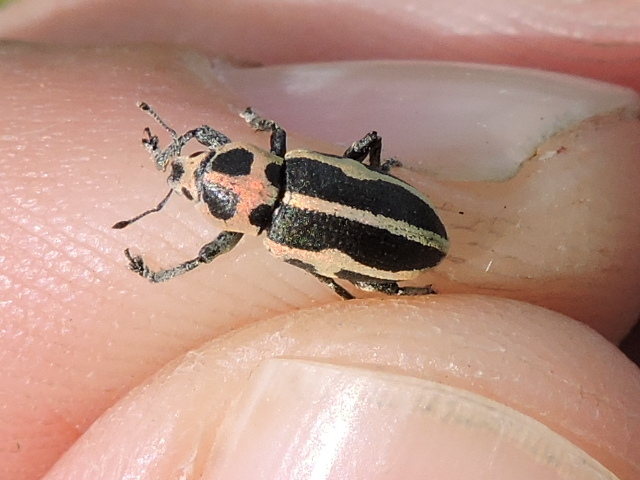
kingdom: Animalia
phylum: Arthropoda
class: Insecta
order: Coleoptera
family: Curculionidae
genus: Eudiagogus
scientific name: Eudiagogus pulcher
